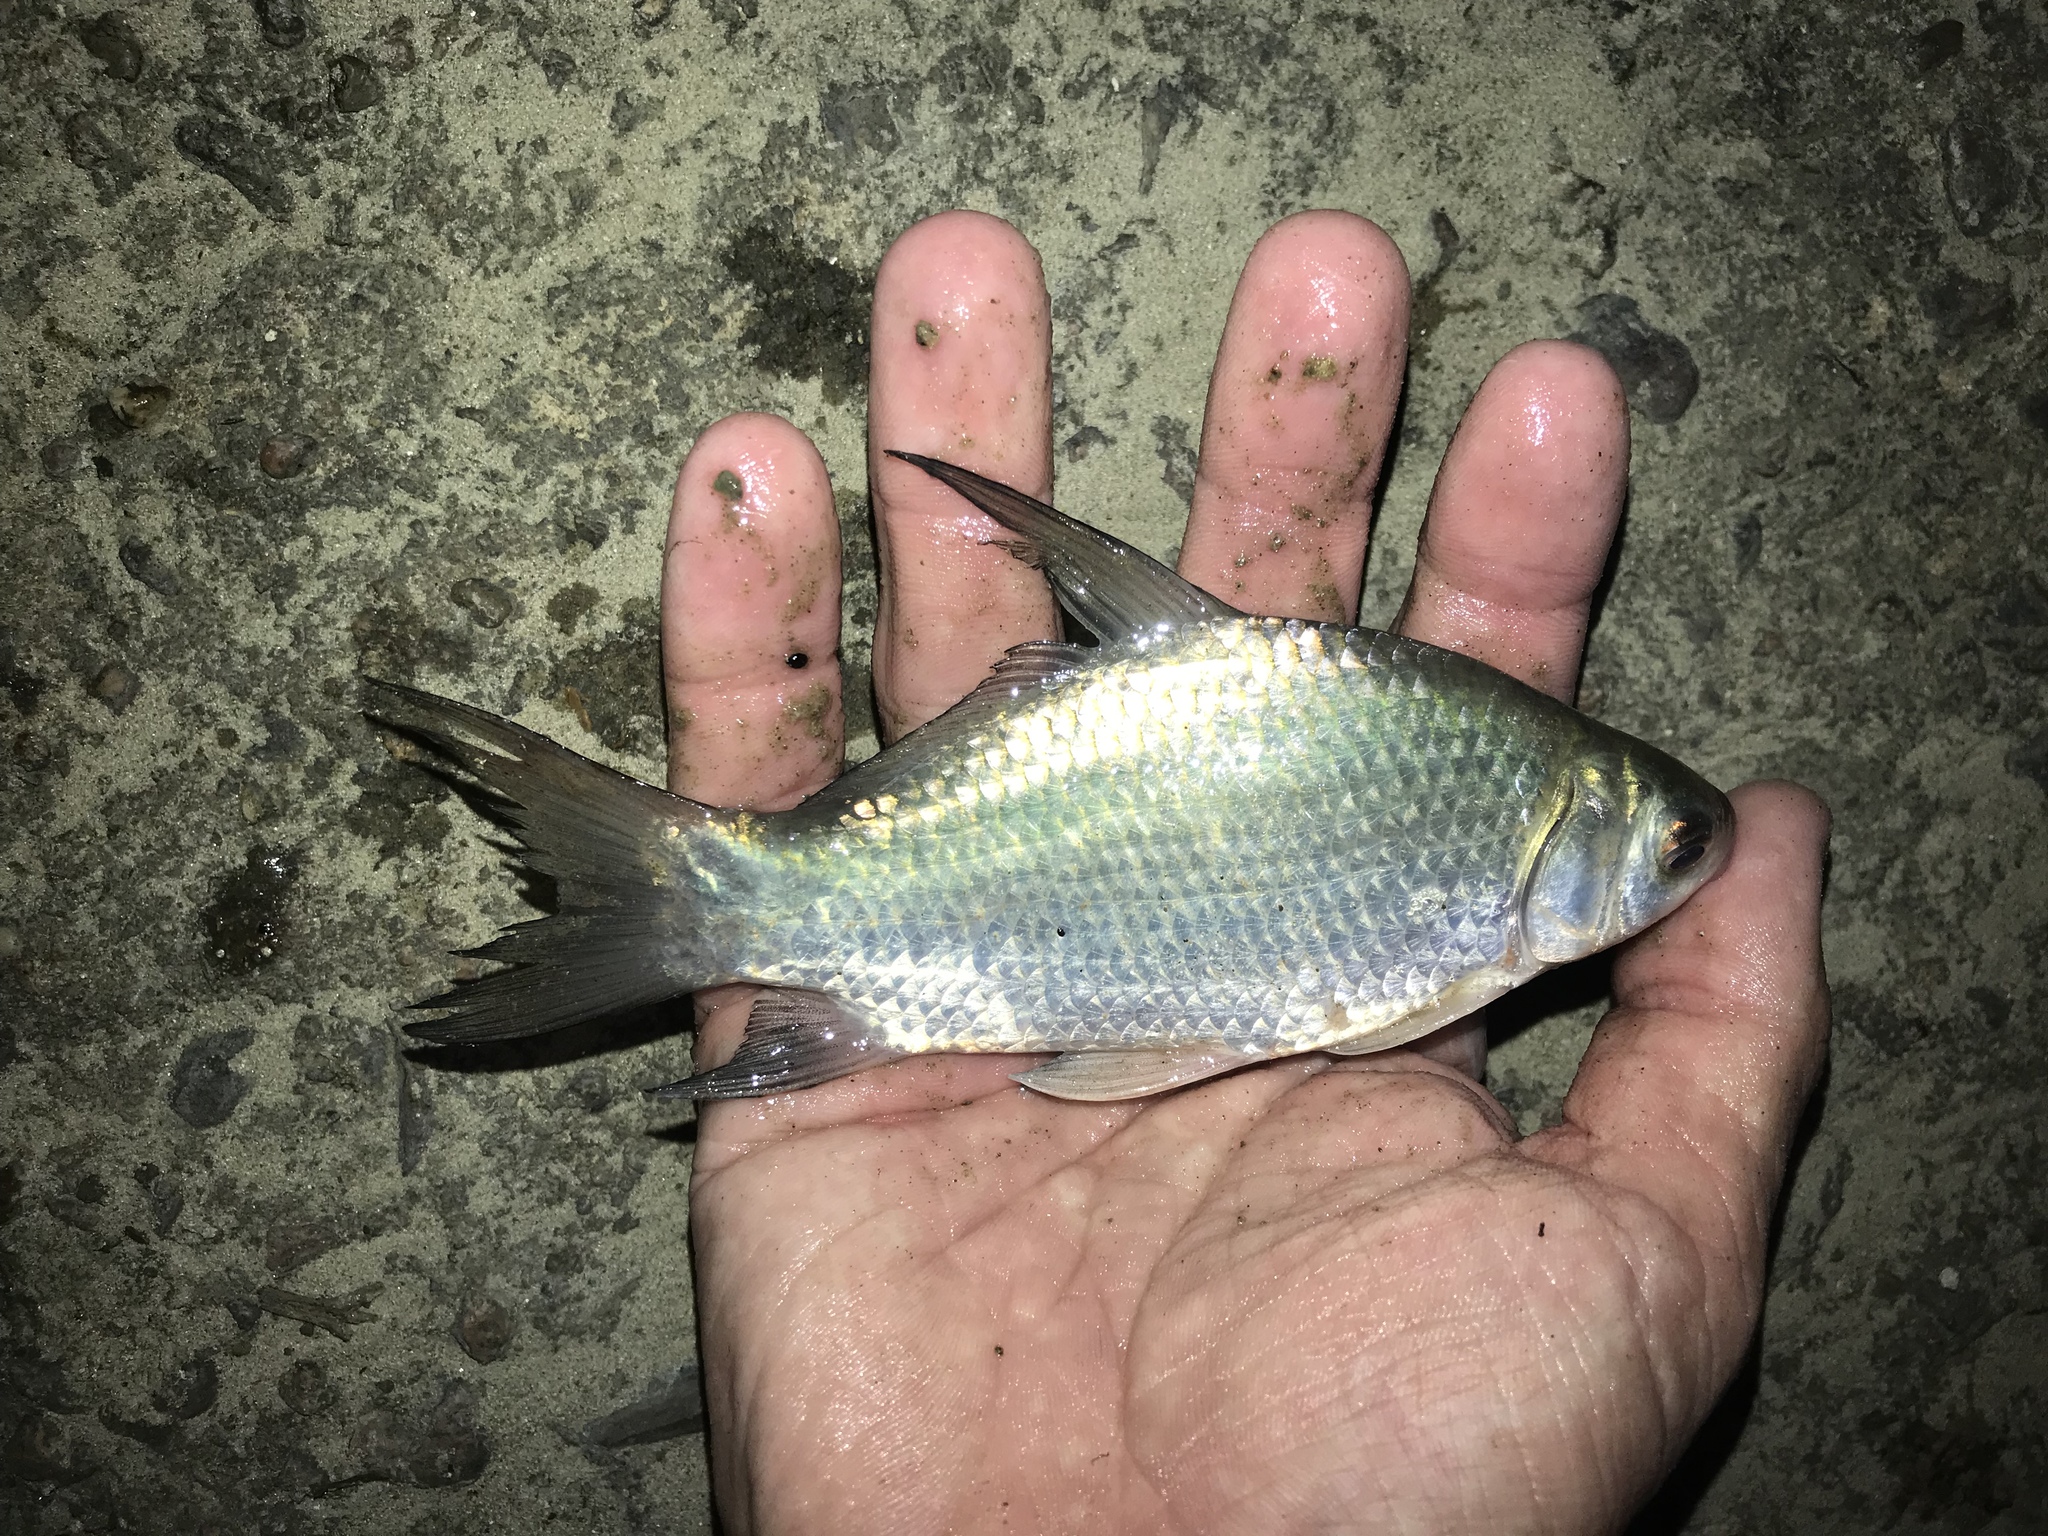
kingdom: Animalia
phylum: Chordata
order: Cypriniformes
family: Catostomidae
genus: Ictiobus
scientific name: Ictiobus bubalus
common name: Smallmouth buffalo
